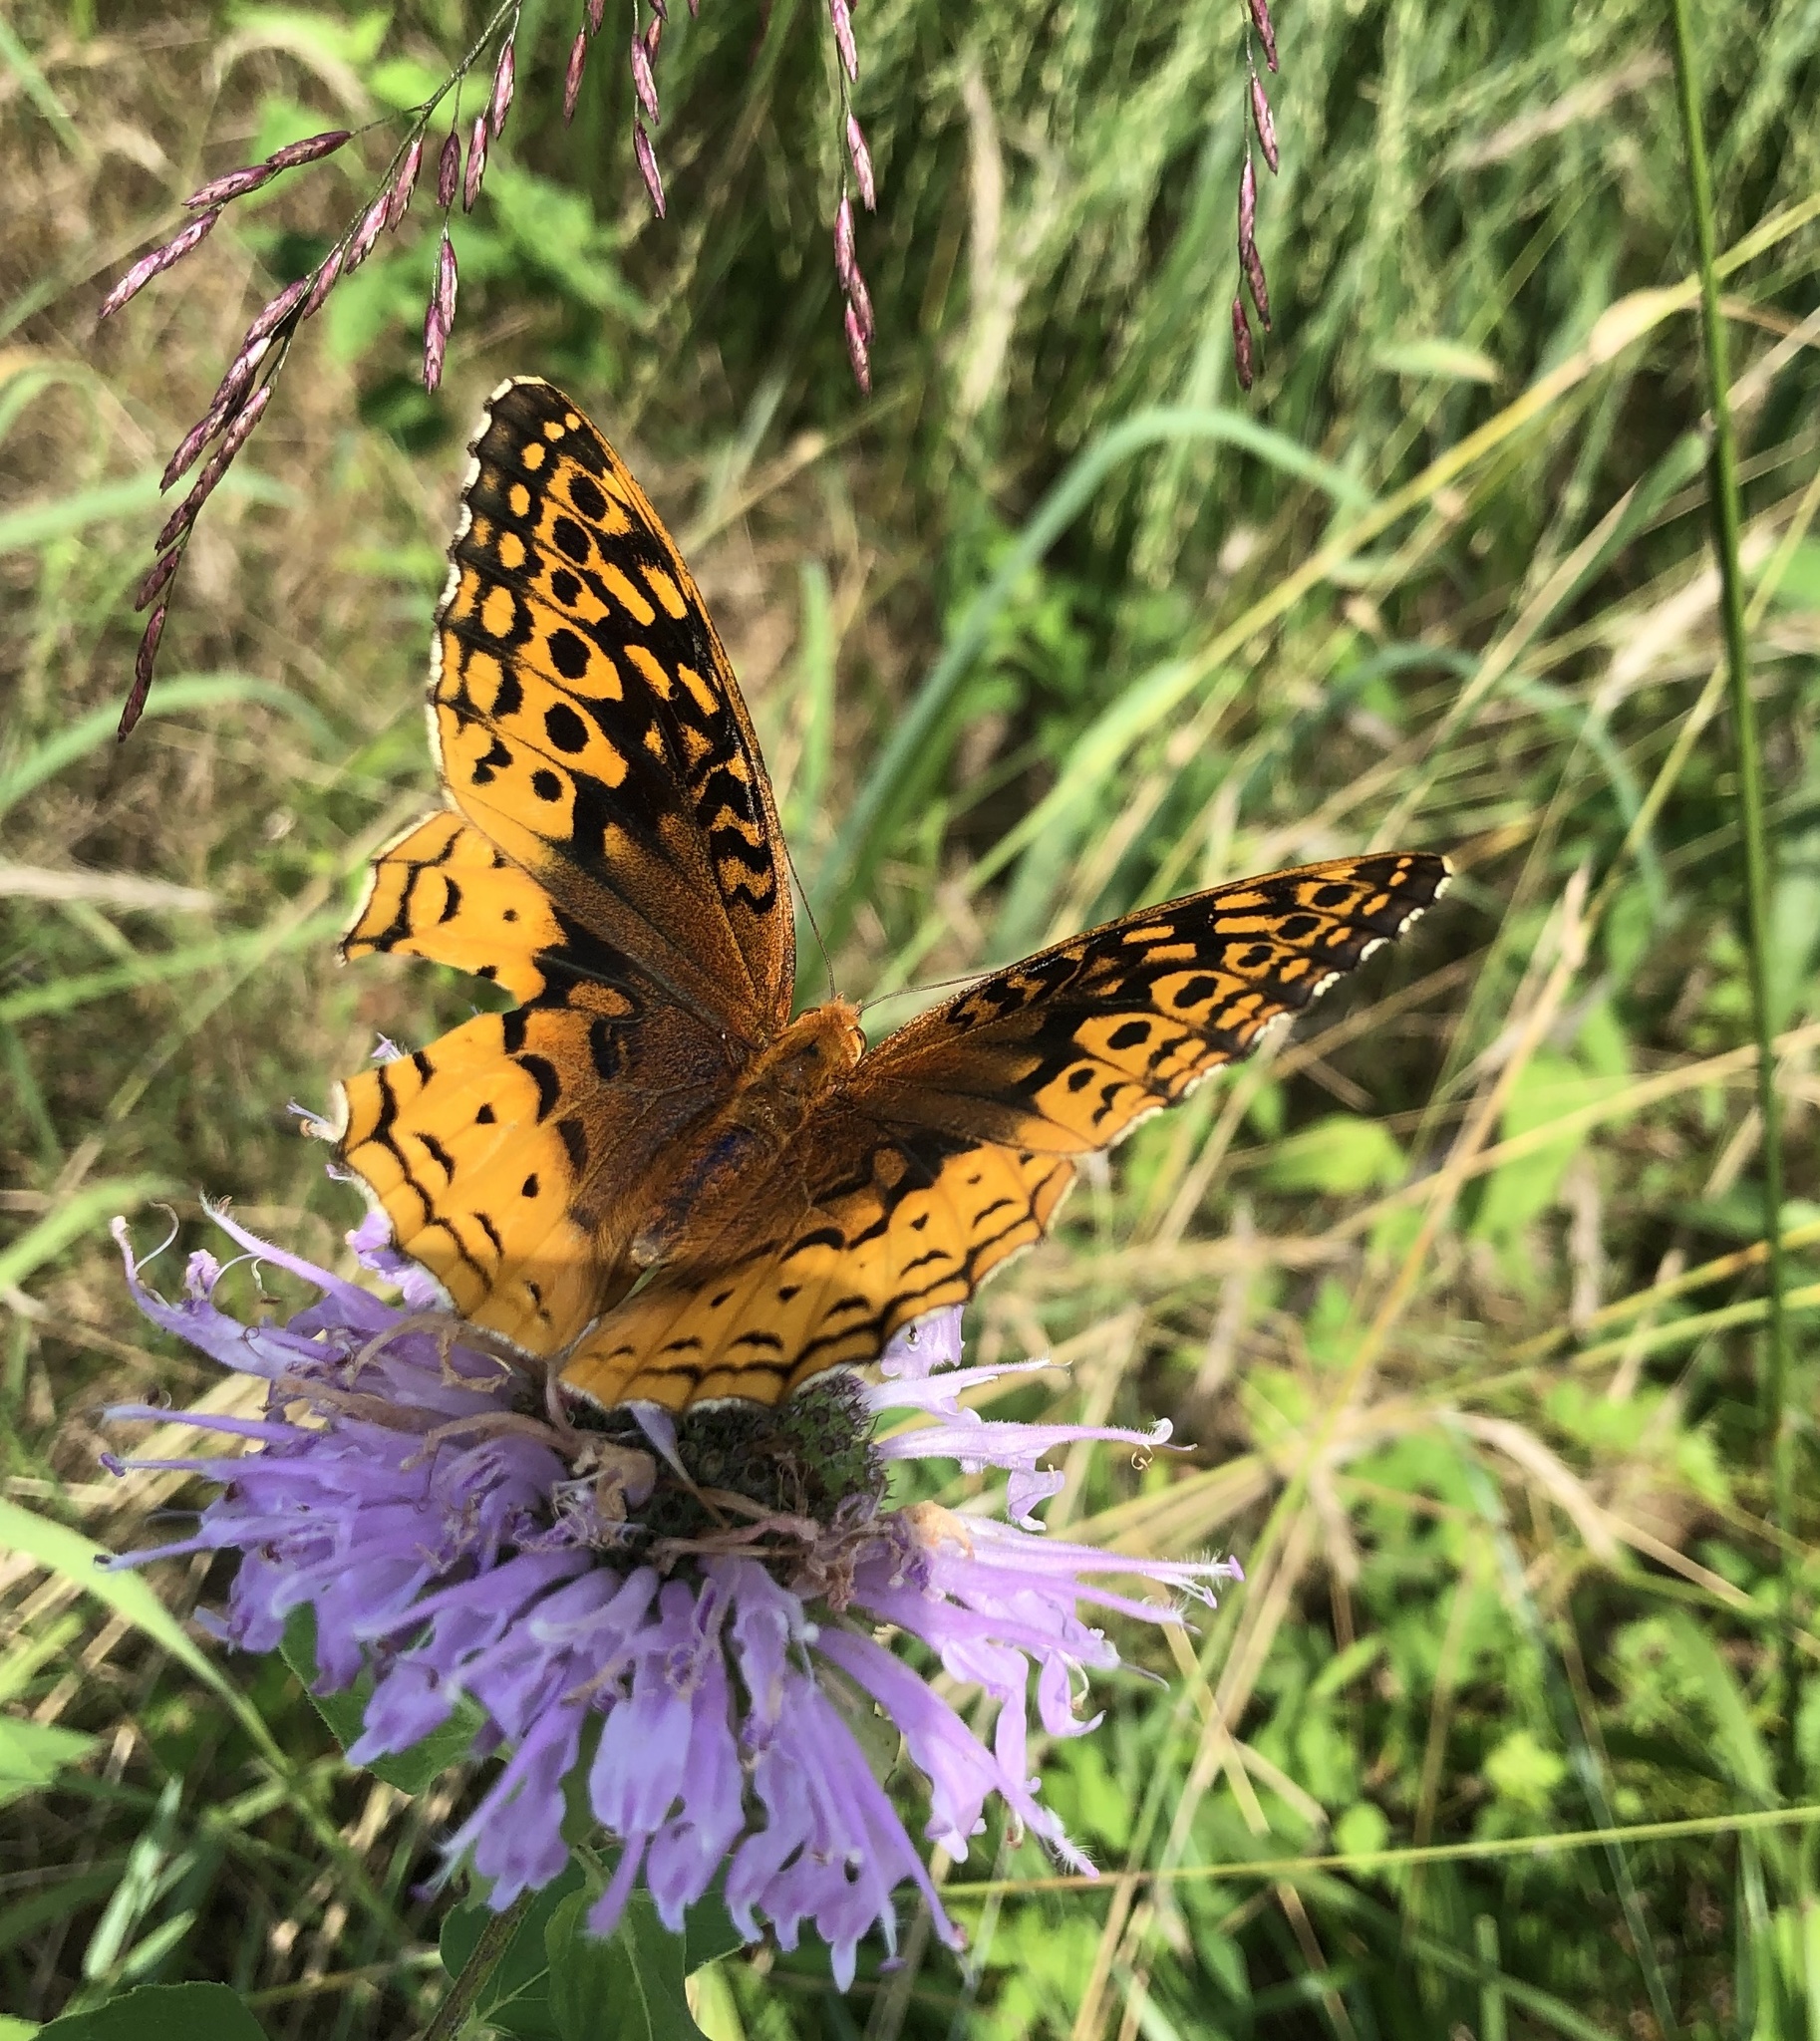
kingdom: Animalia
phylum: Arthropoda
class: Insecta
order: Lepidoptera
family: Nymphalidae
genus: Speyeria
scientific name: Speyeria cybele
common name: Great spangled fritillary
